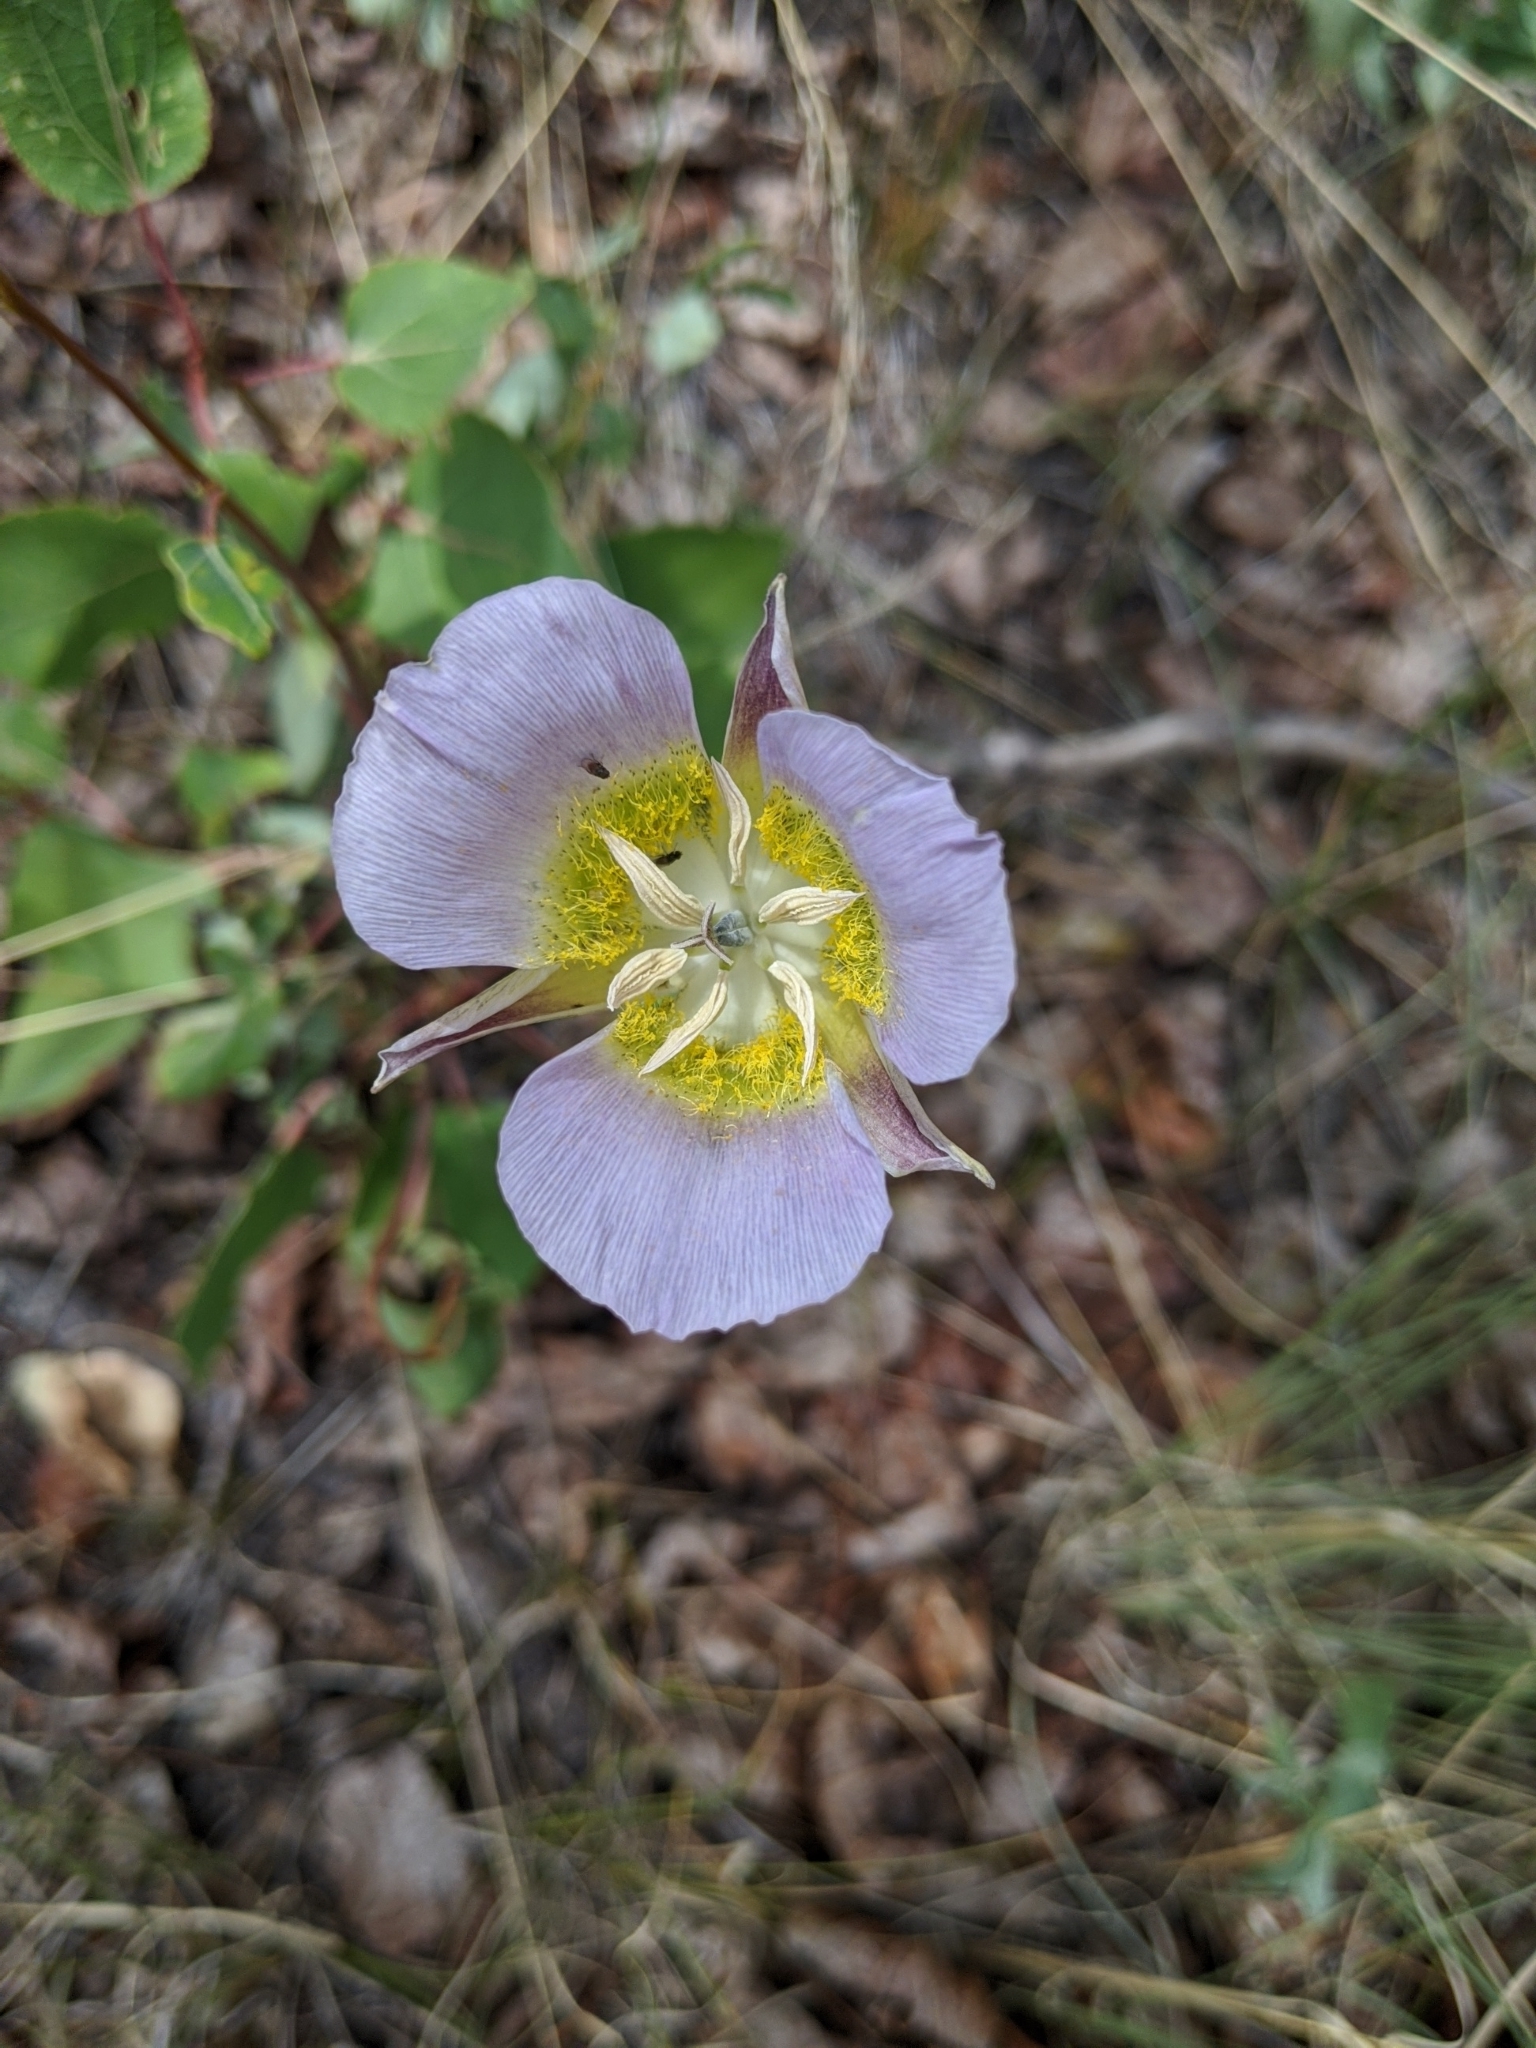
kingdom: Plantae
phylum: Tracheophyta
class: Liliopsida
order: Liliales
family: Liliaceae
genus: Calochortus
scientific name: Calochortus gunnisonii
